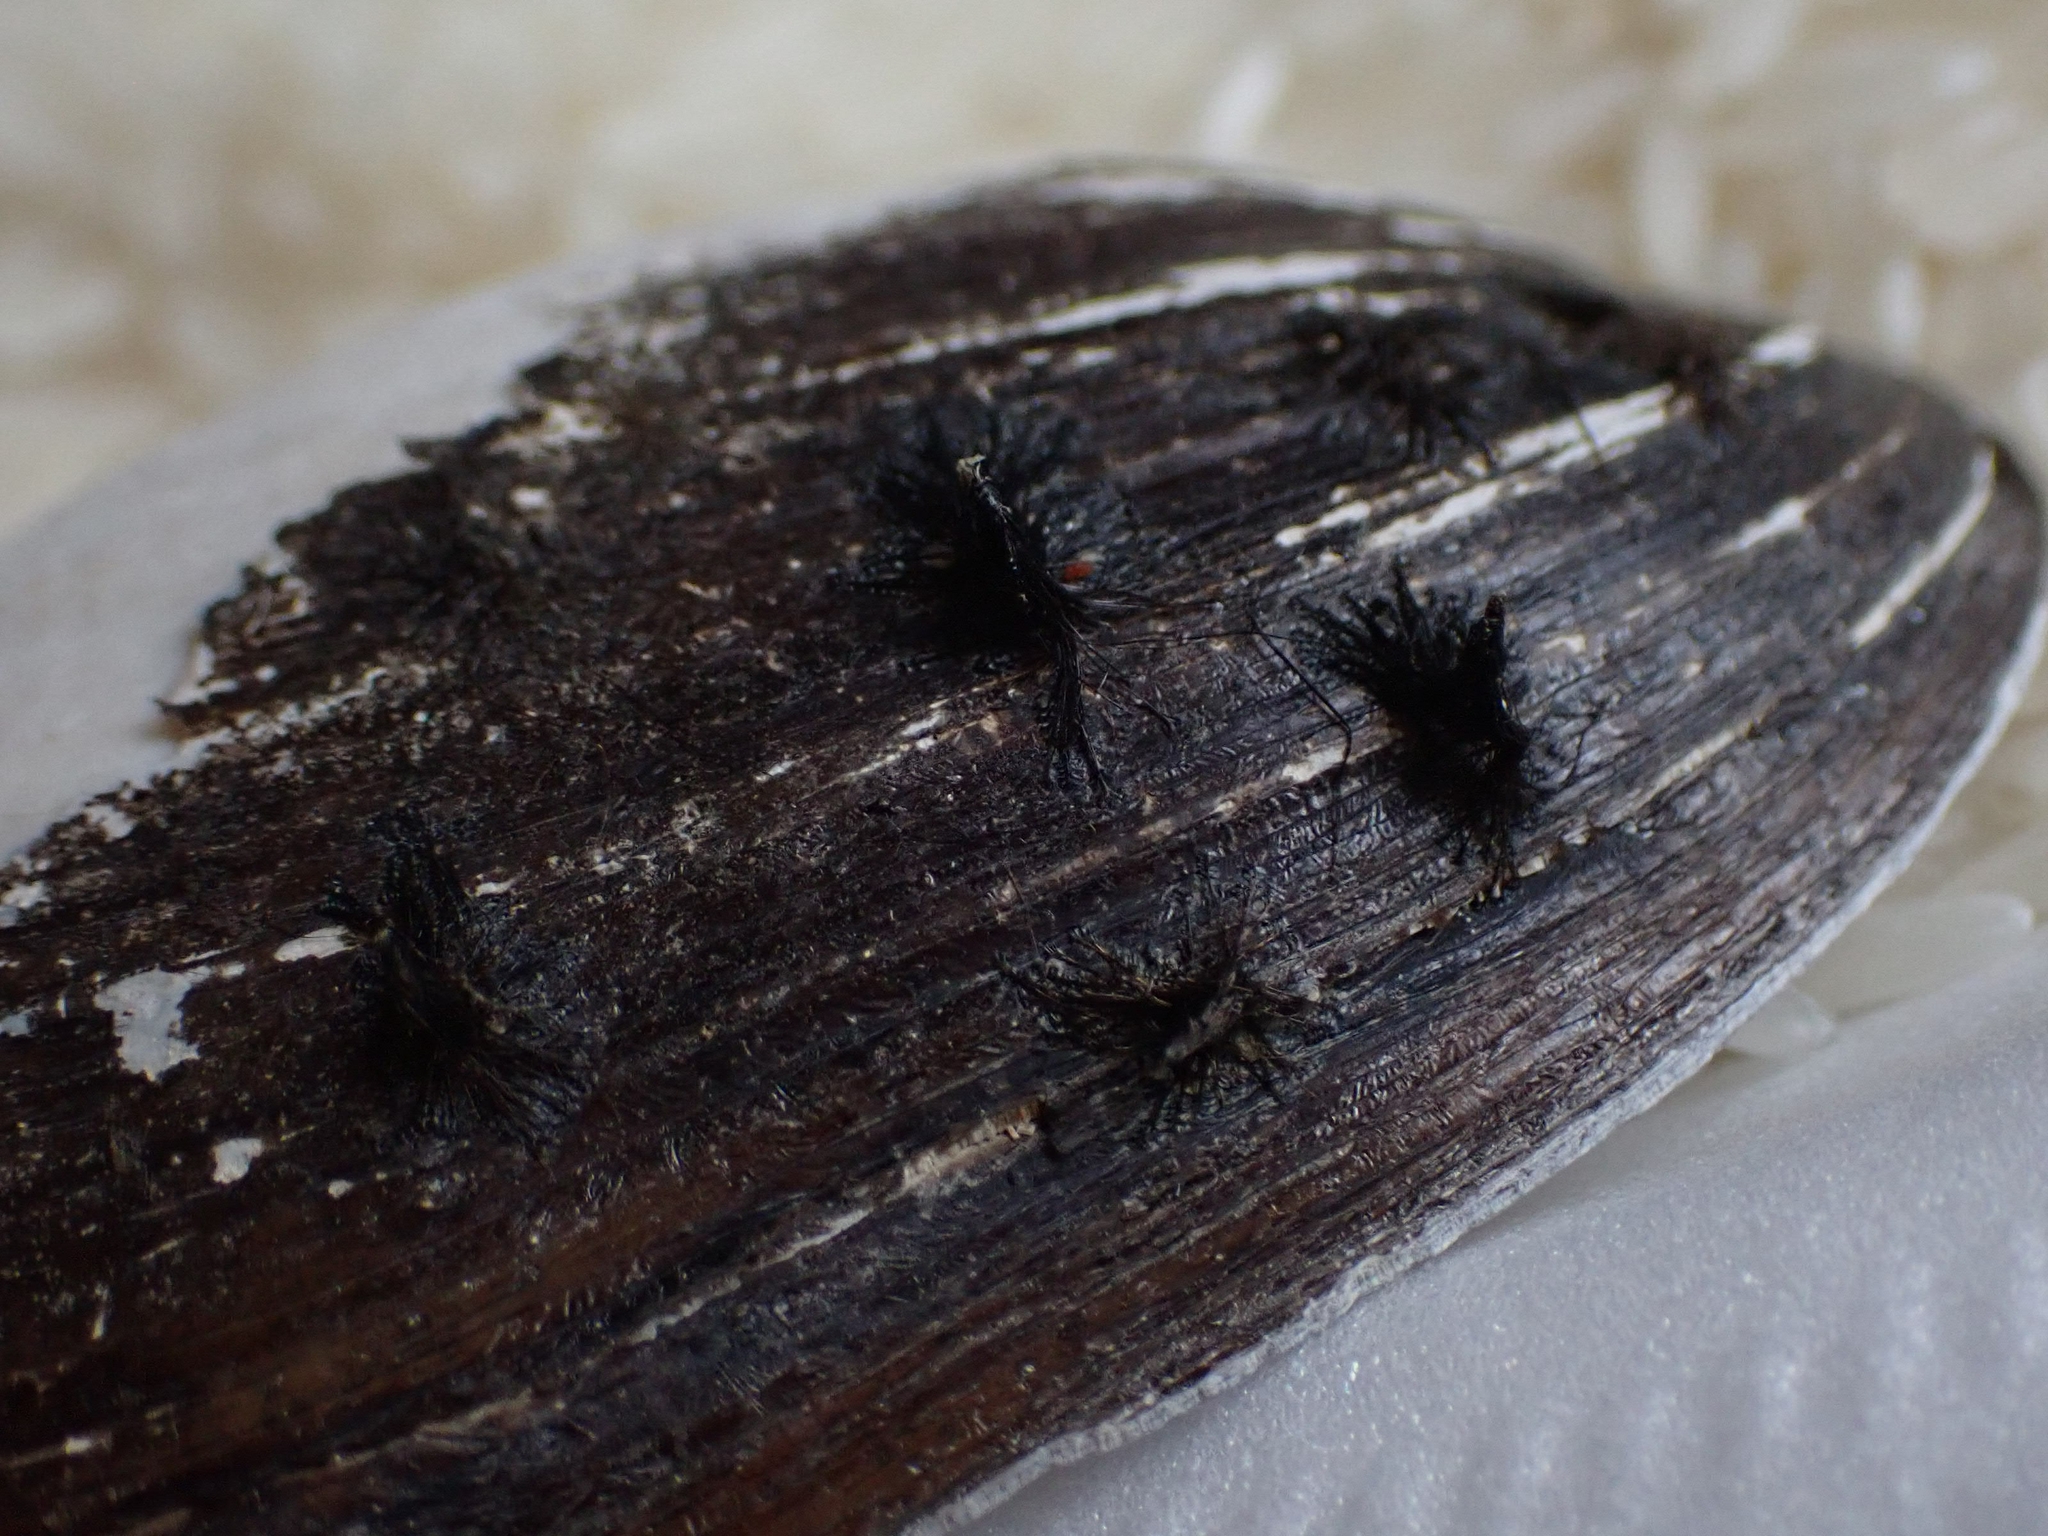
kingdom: Animalia
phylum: Mollusca
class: Bivalvia
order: Unionida
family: Unionidae
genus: Lampsilis
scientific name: Lampsilis siliquoidea
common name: Fatmucket
